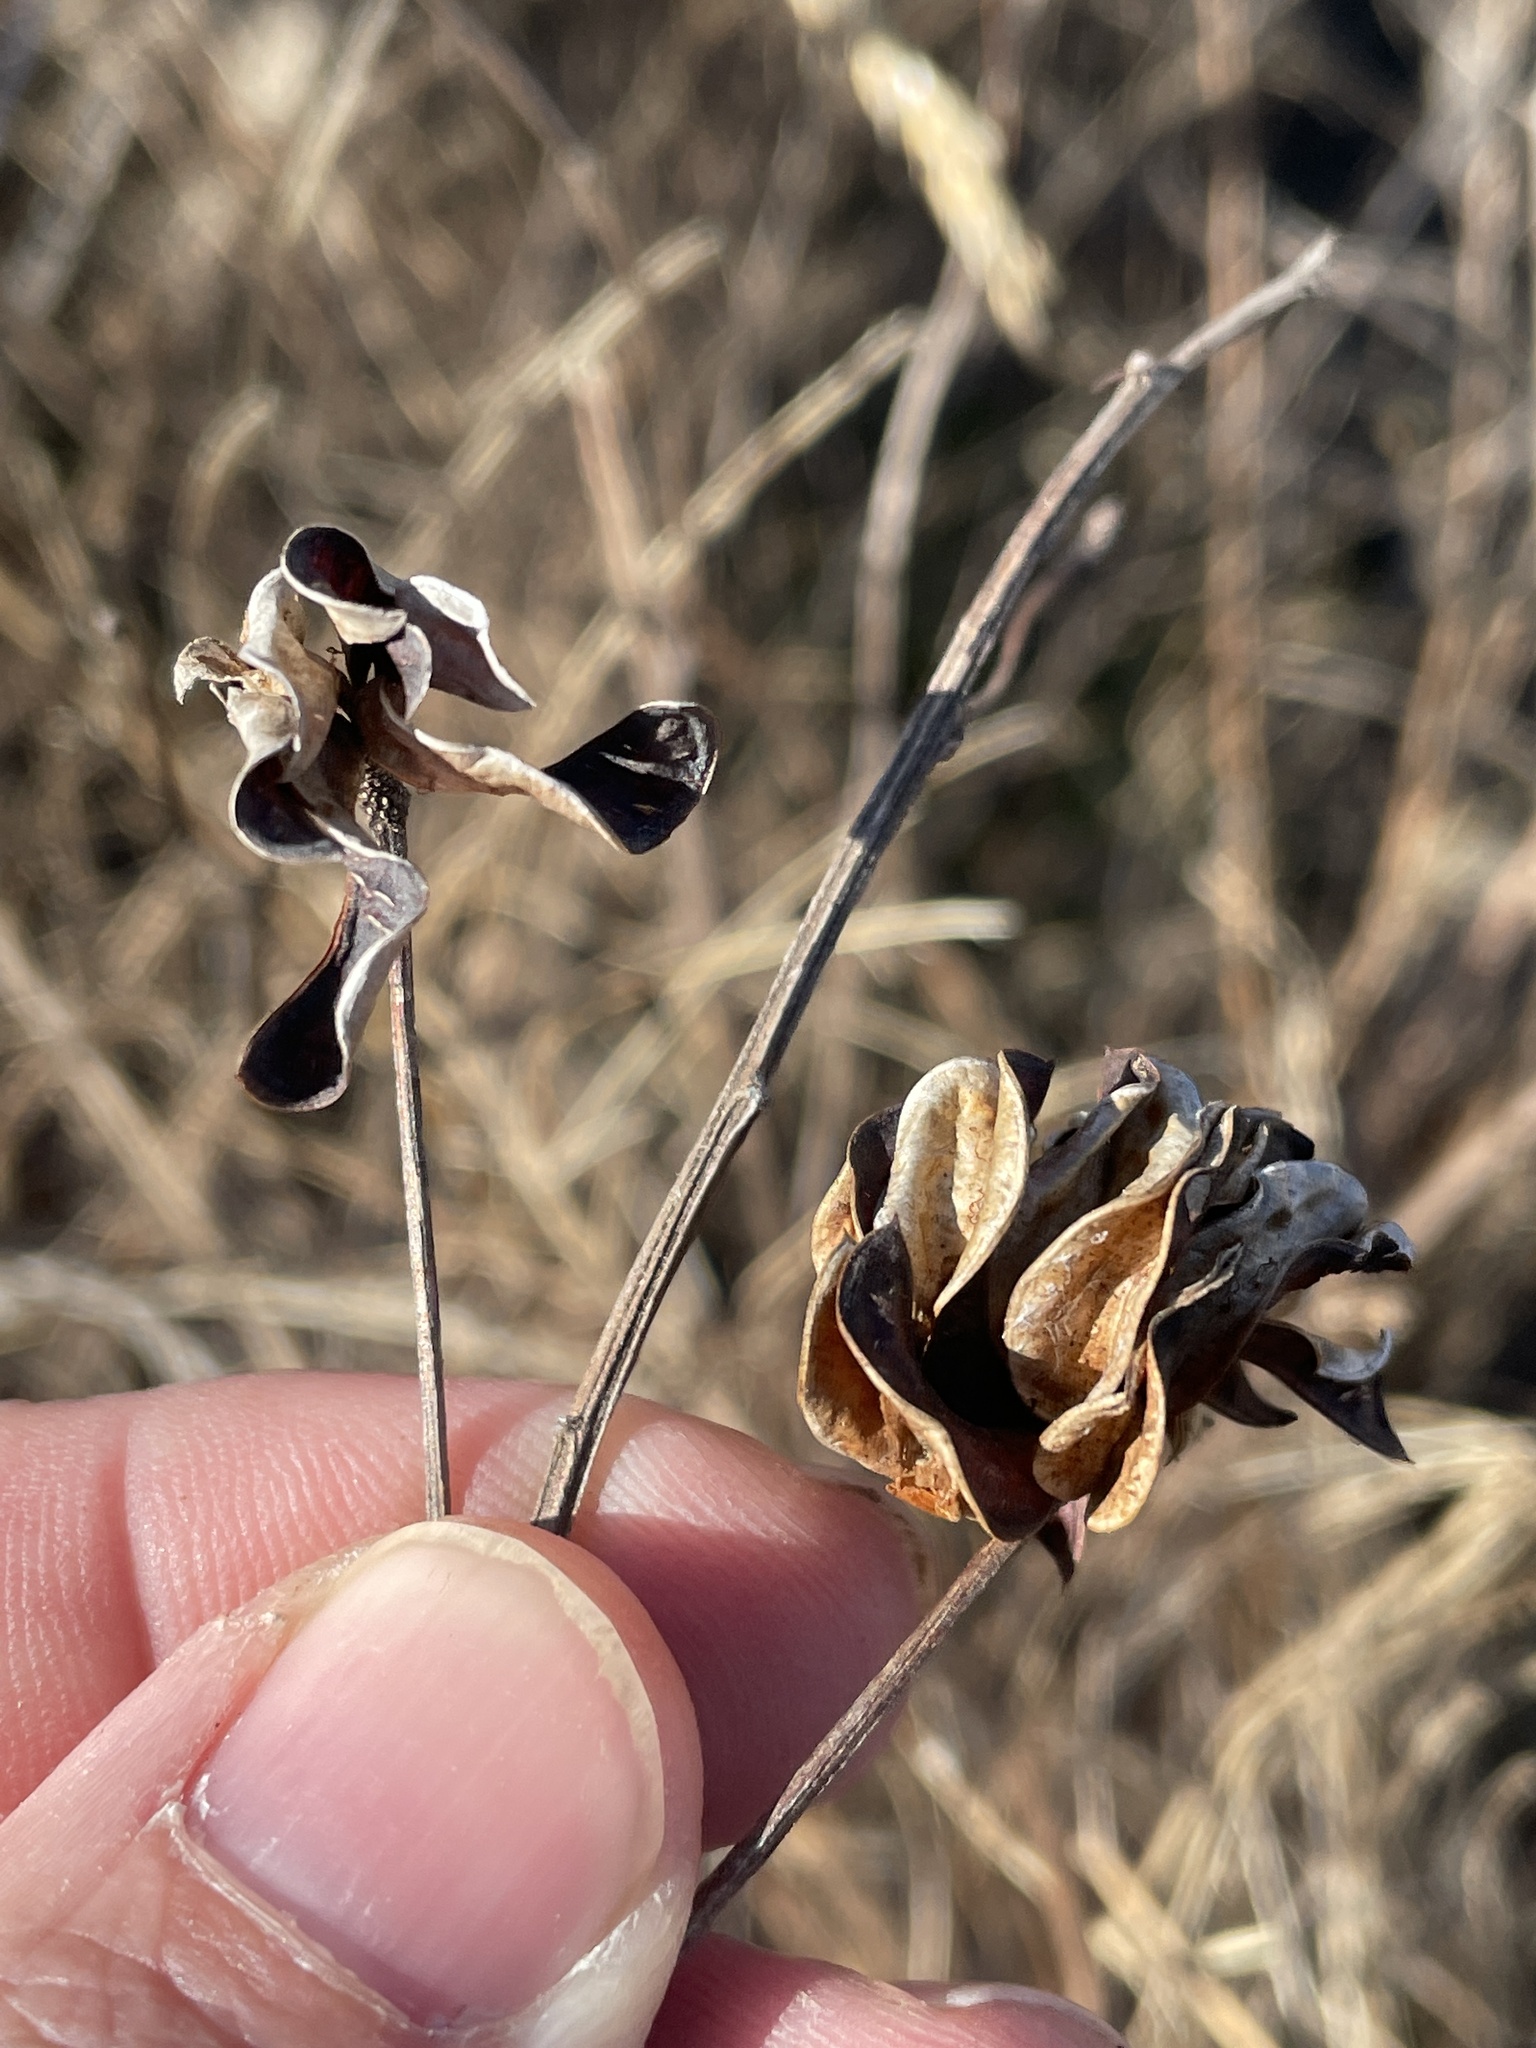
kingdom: Plantae
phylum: Tracheophyta
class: Magnoliopsida
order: Fabales
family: Fabaceae
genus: Desmanthus
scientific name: Desmanthus illinoensis
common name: Illinois bundle-flower
